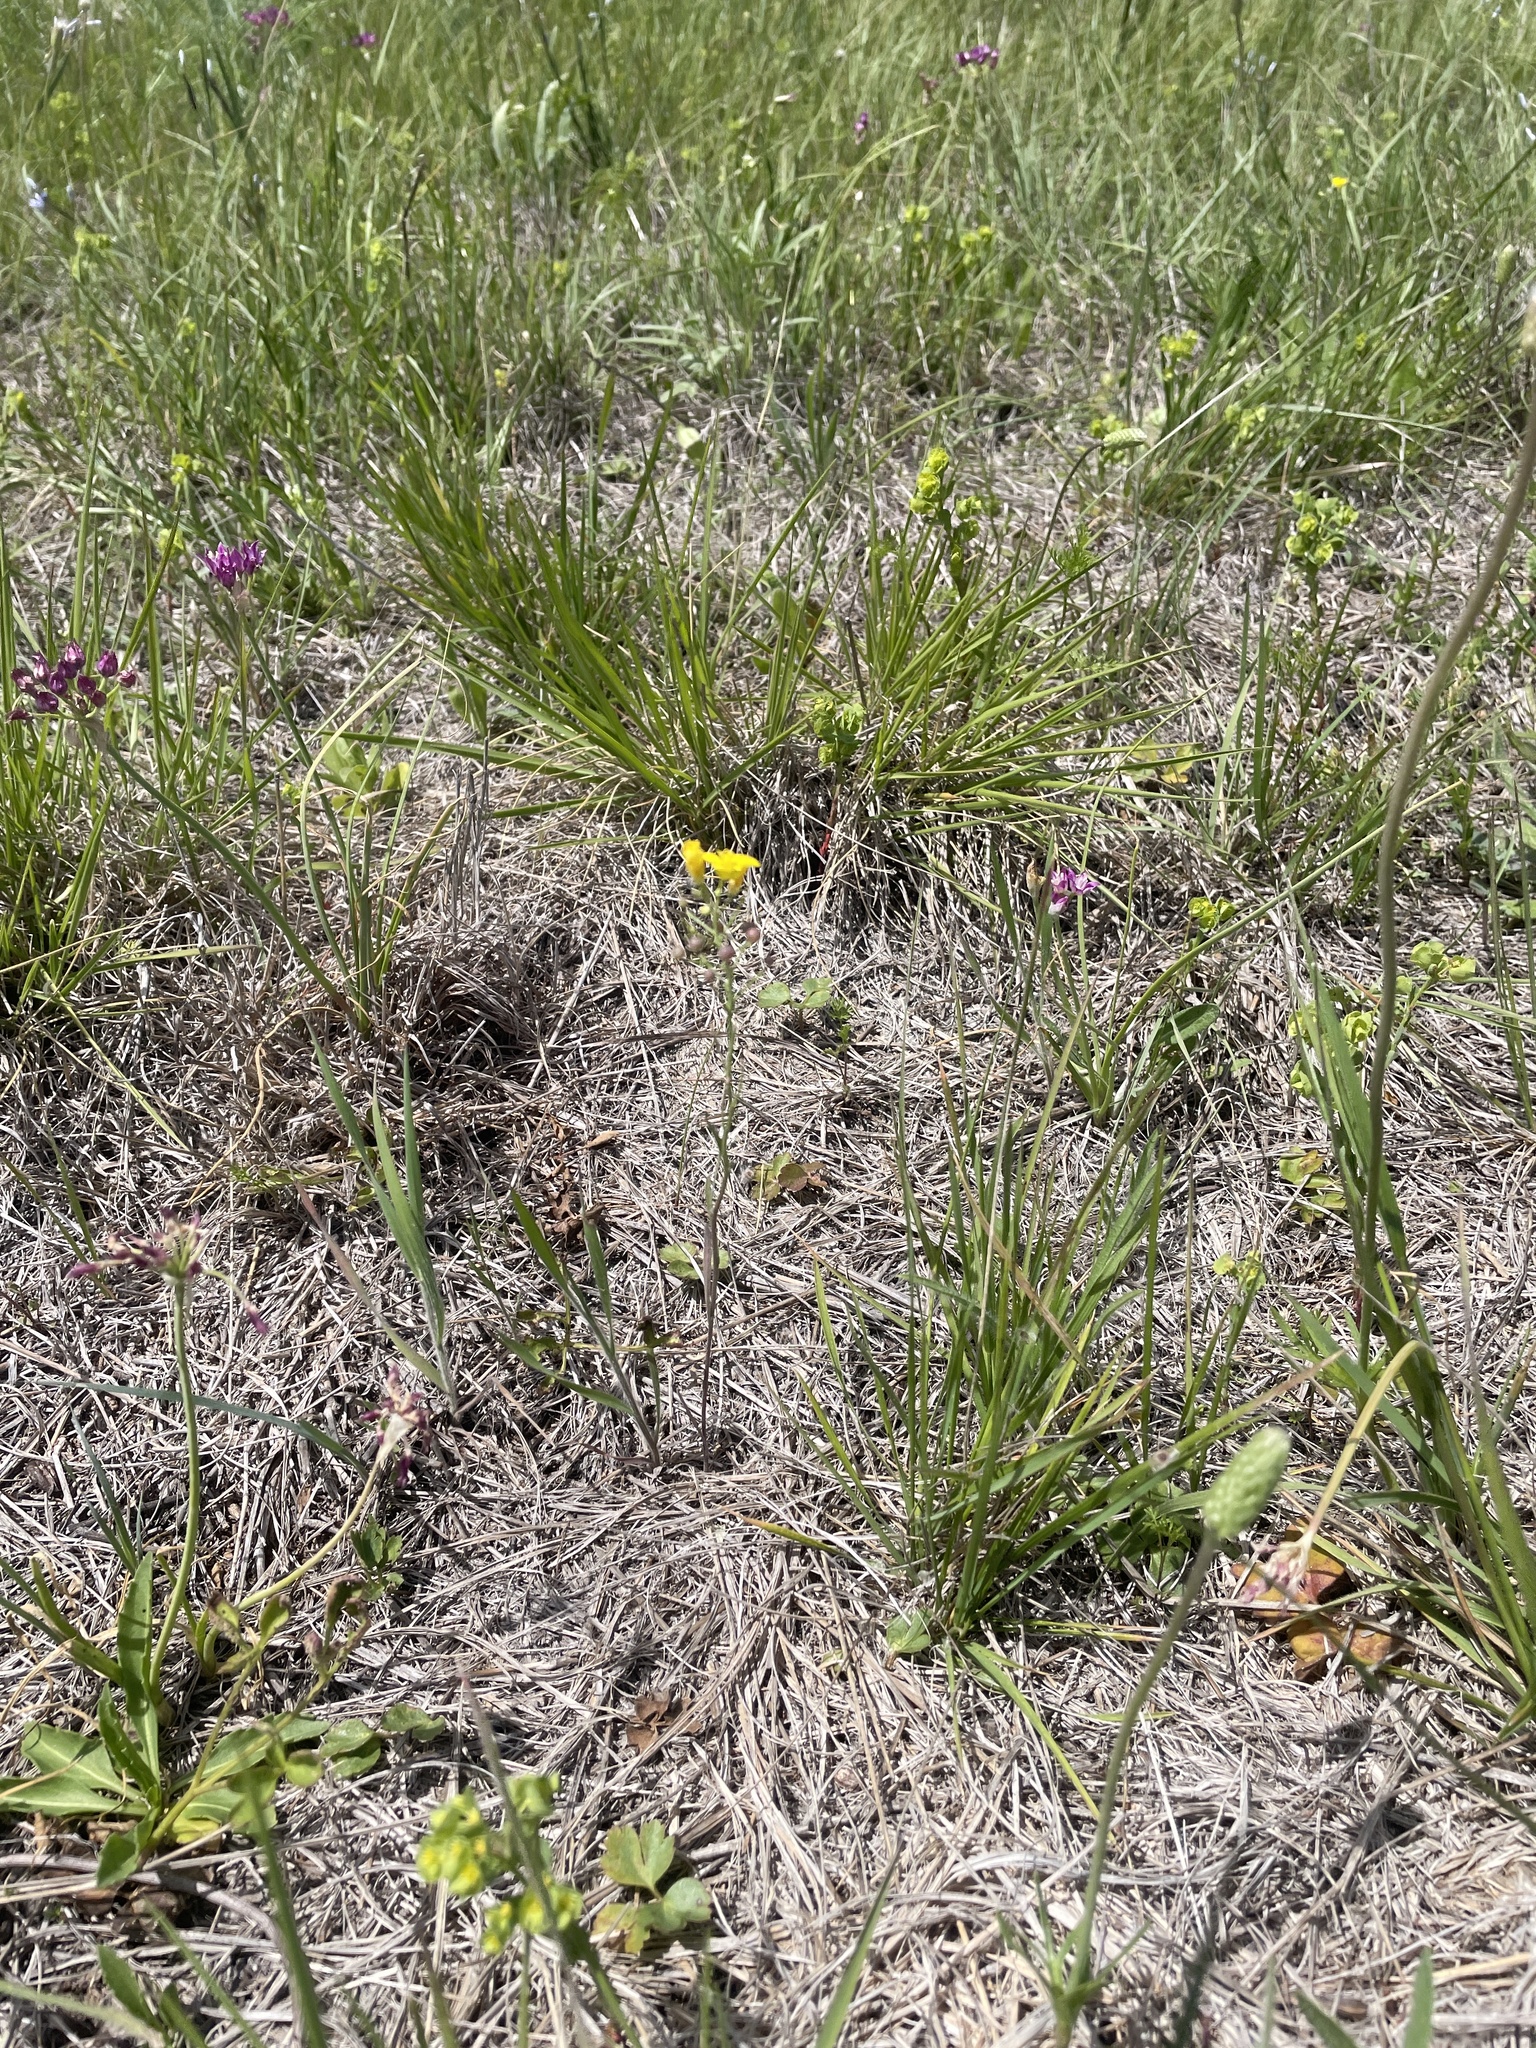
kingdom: Plantae
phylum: Tracheophyta
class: Magnoliopsida
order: Brassicales
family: Brassicaceae
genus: Physaria
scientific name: Physaria gracilis
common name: Spreading bladderpod
